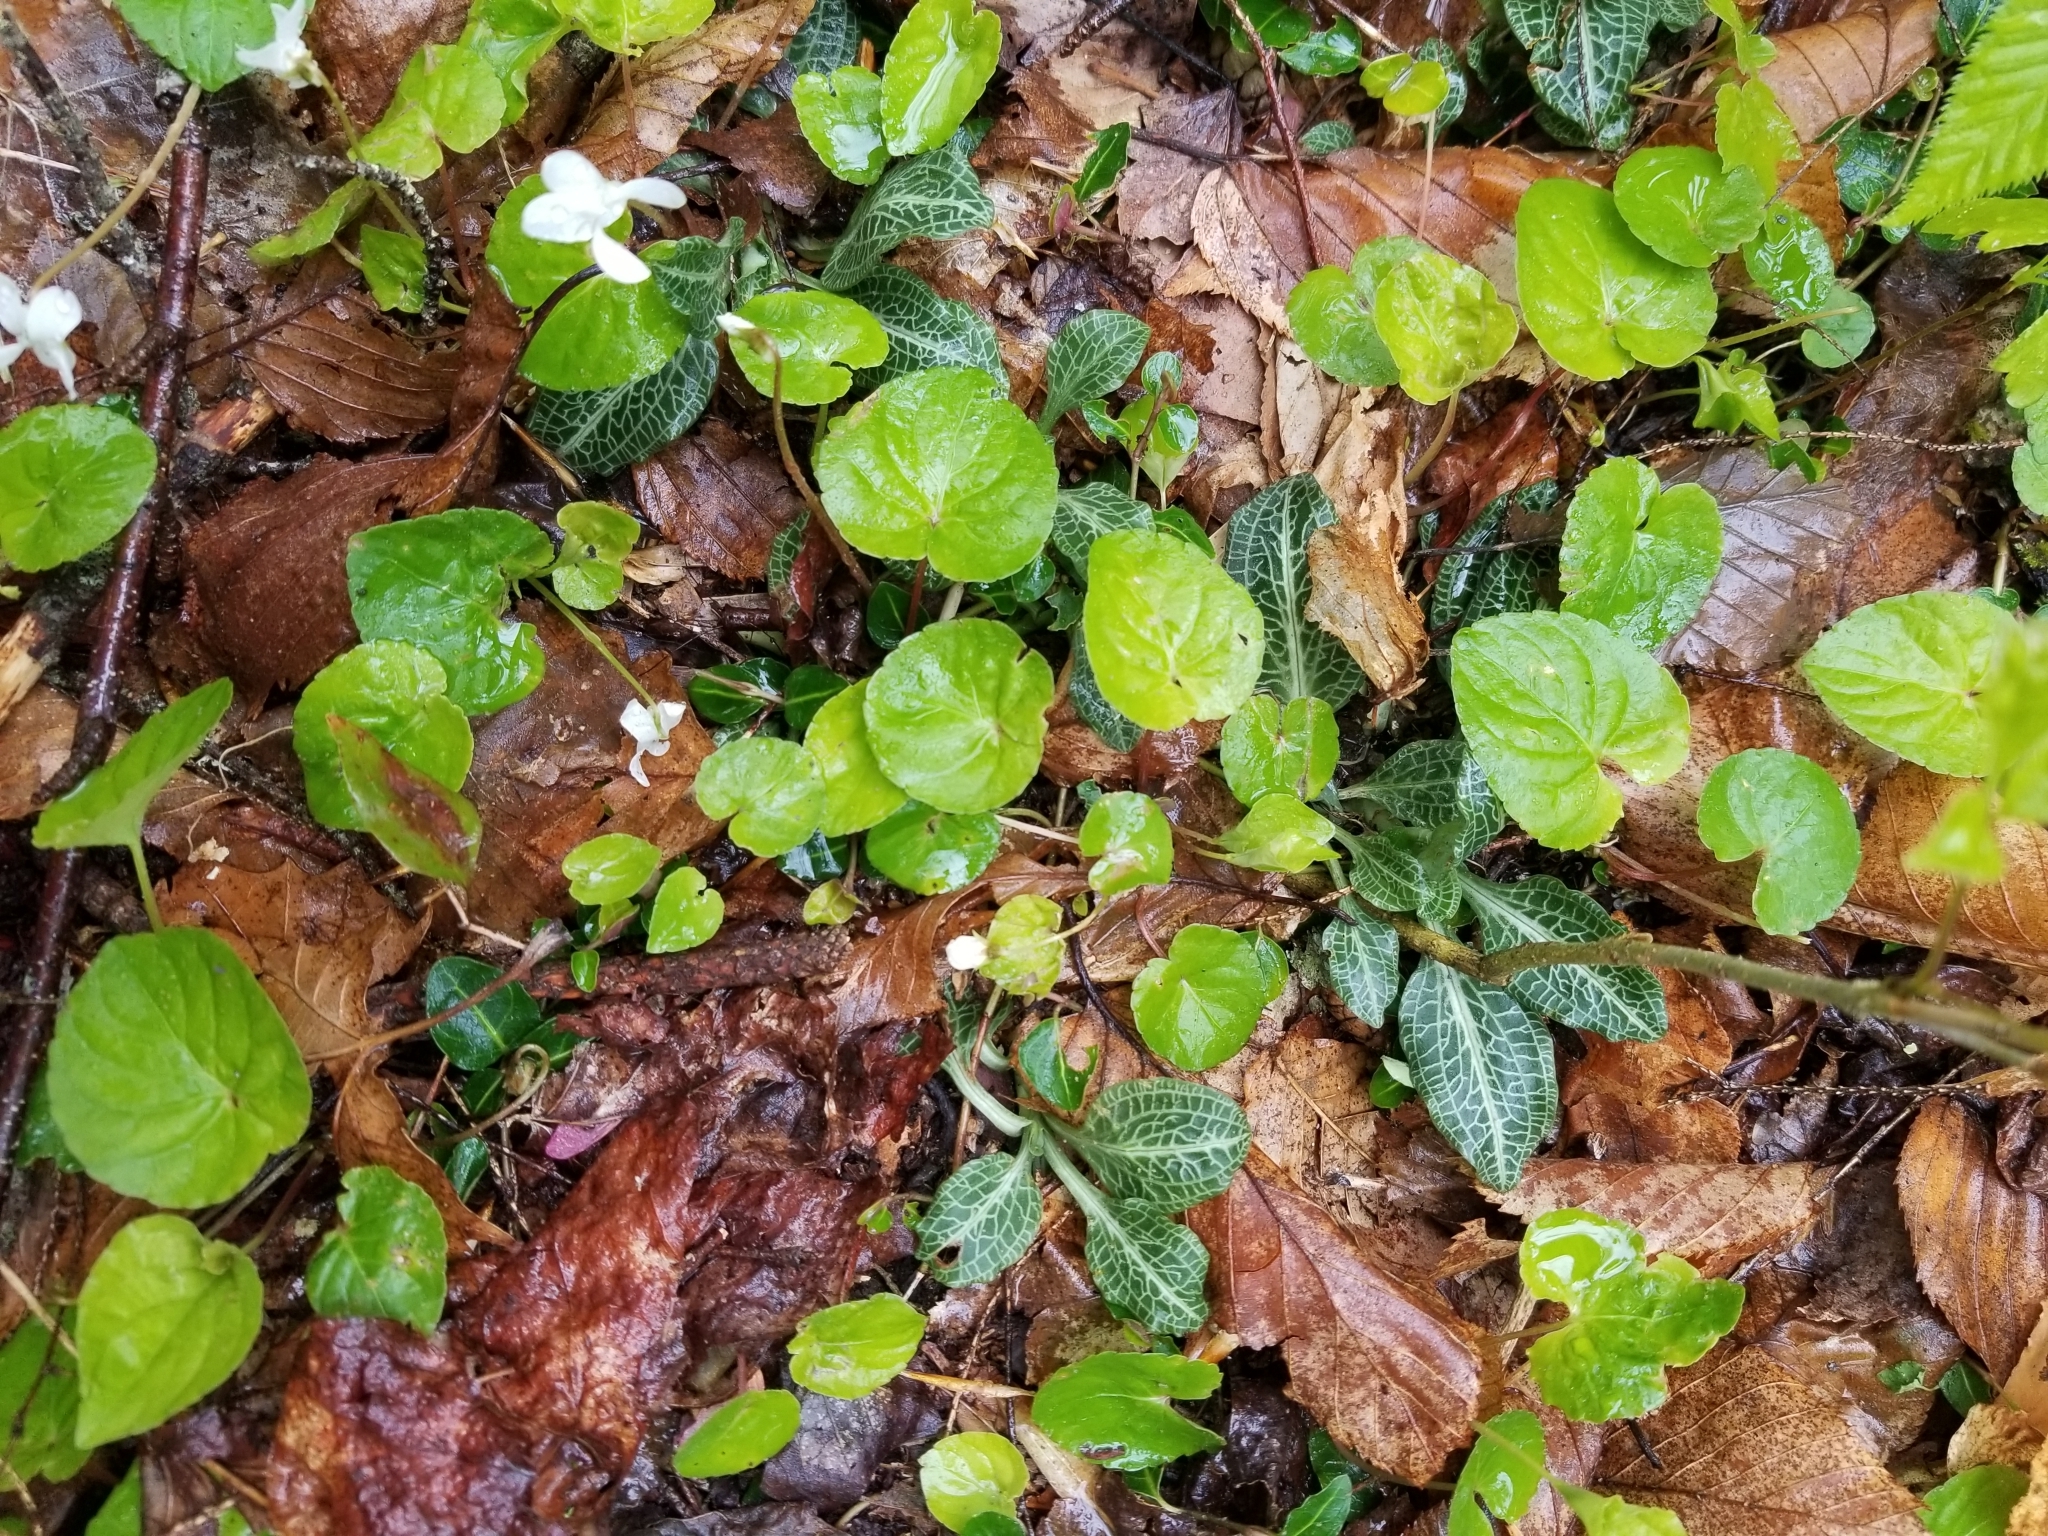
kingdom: Plantae
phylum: Tracheophyta
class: Liliopsida
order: Asparagales
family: Orchidaceae
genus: Goodyera
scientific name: Goodyera pubescens
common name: Downy rattlesnake-plantain
